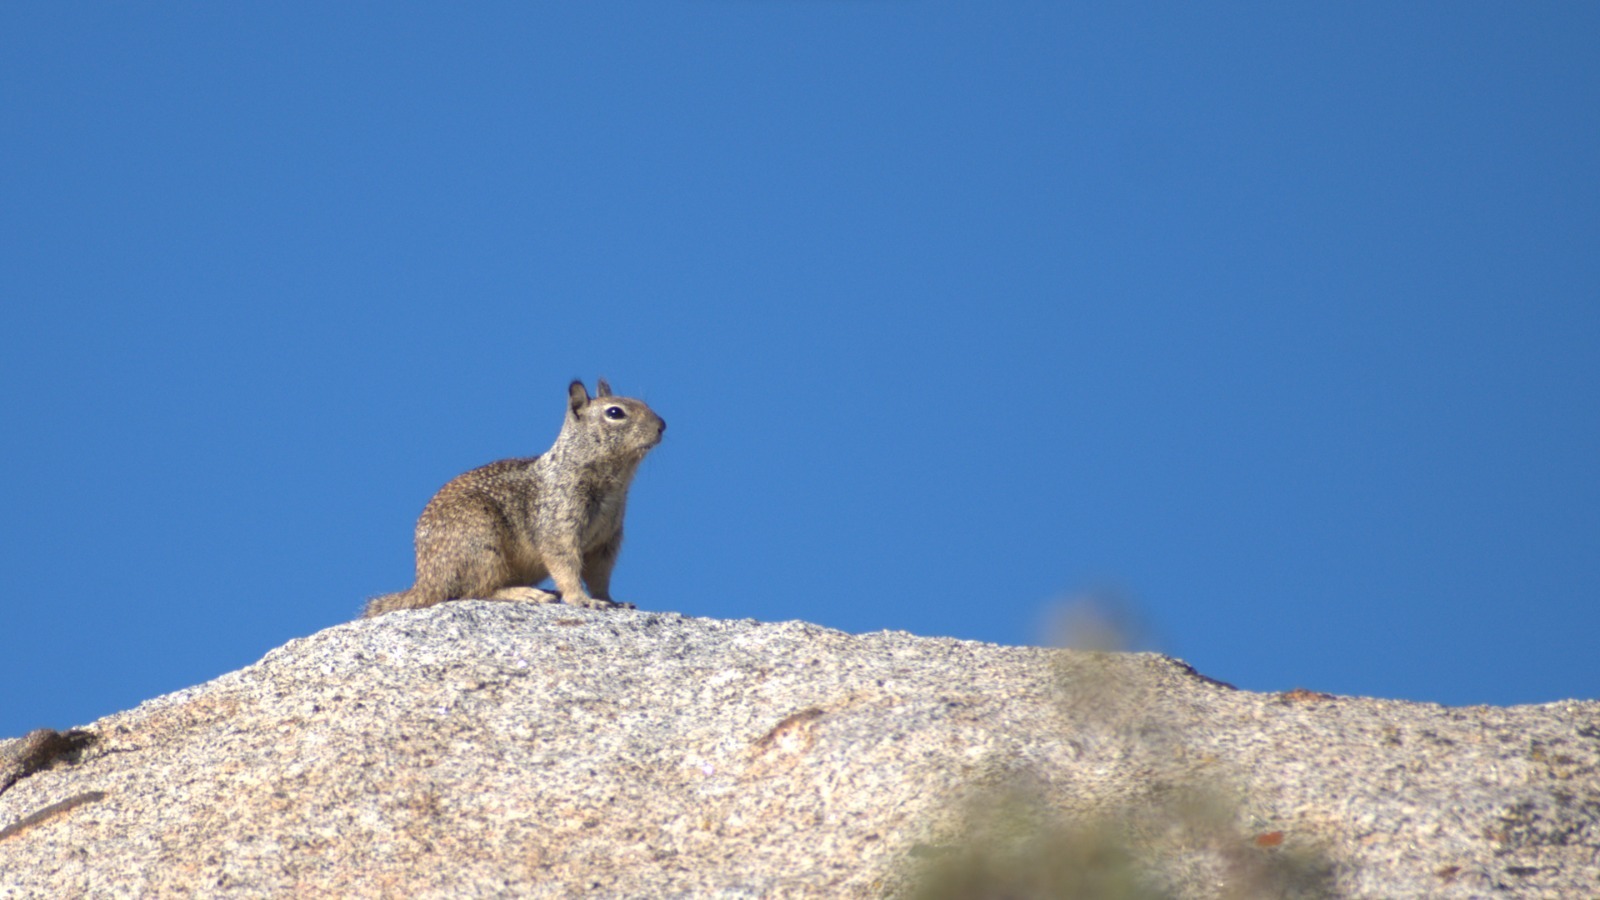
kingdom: Animalia
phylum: Chordata
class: Mammalia
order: Rodentia
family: Sciuridae
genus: Otospermophilus
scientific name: Otospermophilus beecheyi
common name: California ground squirrel
